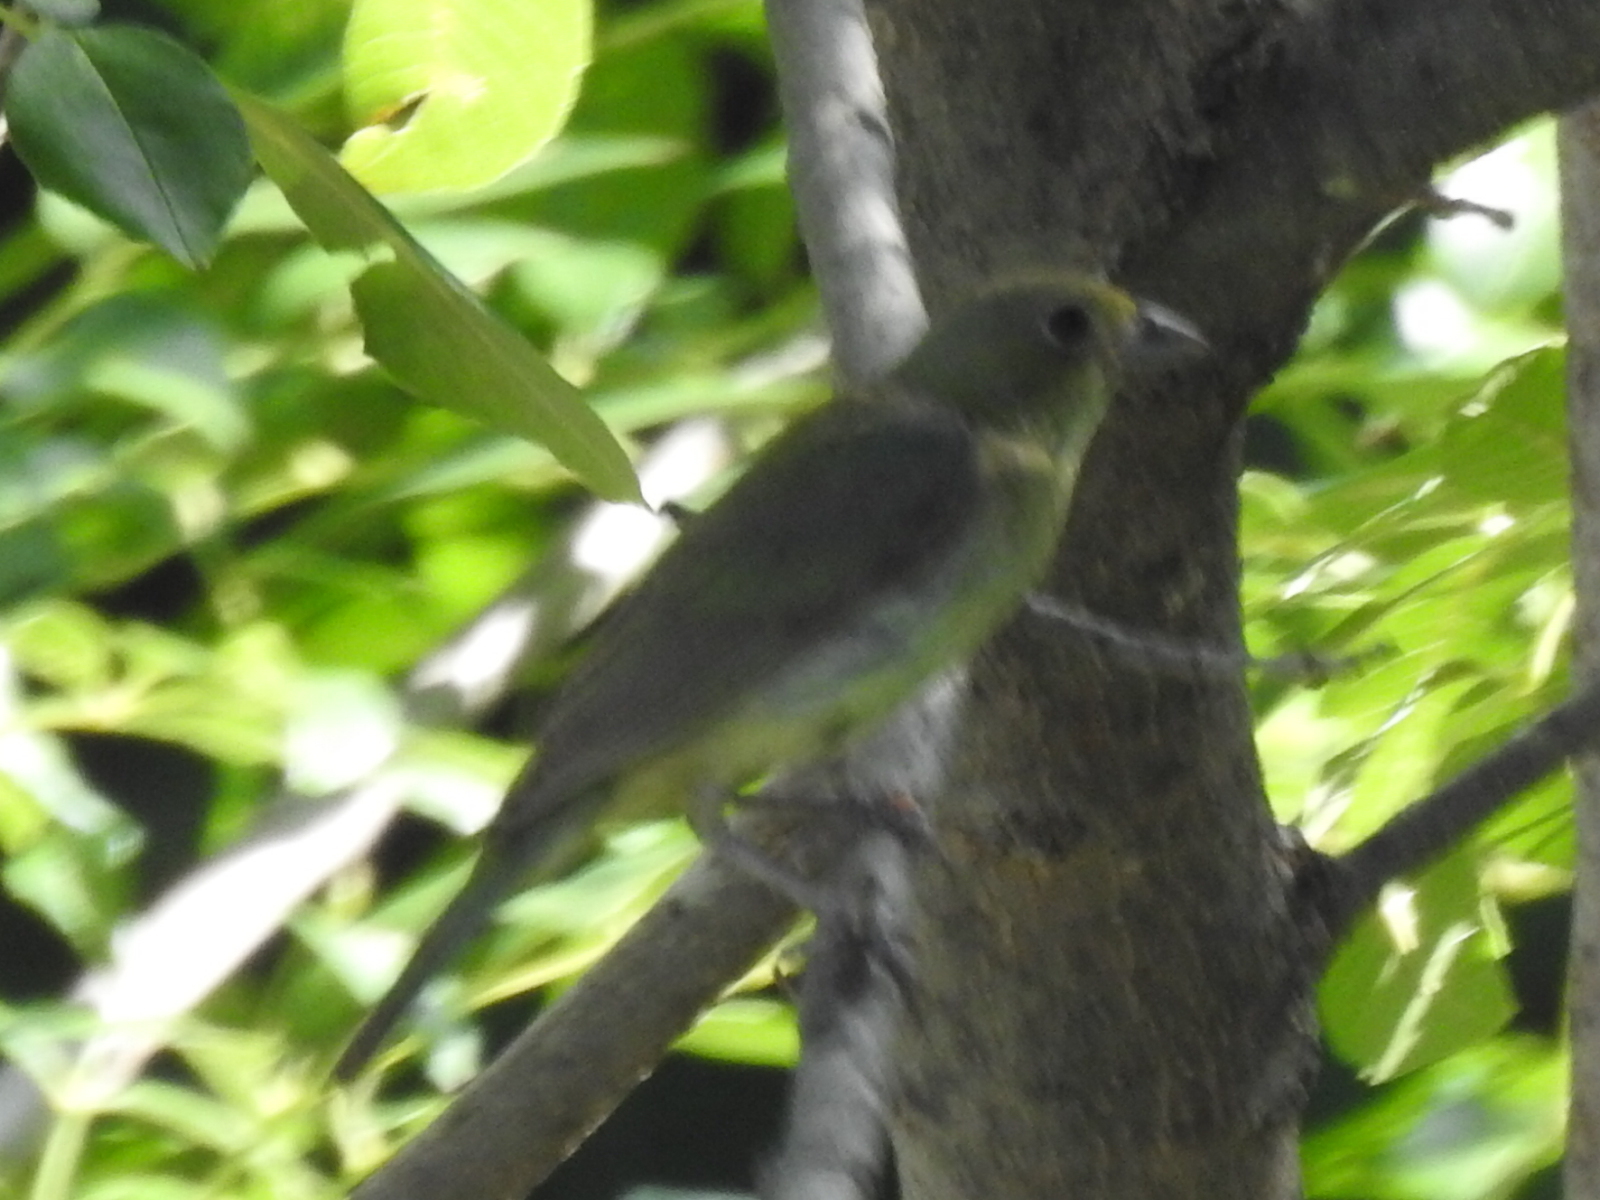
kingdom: Animalia
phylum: Chordata
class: Aves
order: Passeriformes
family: Cardinalidae
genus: Passerina
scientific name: Passerina ciris
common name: Painted bunting
